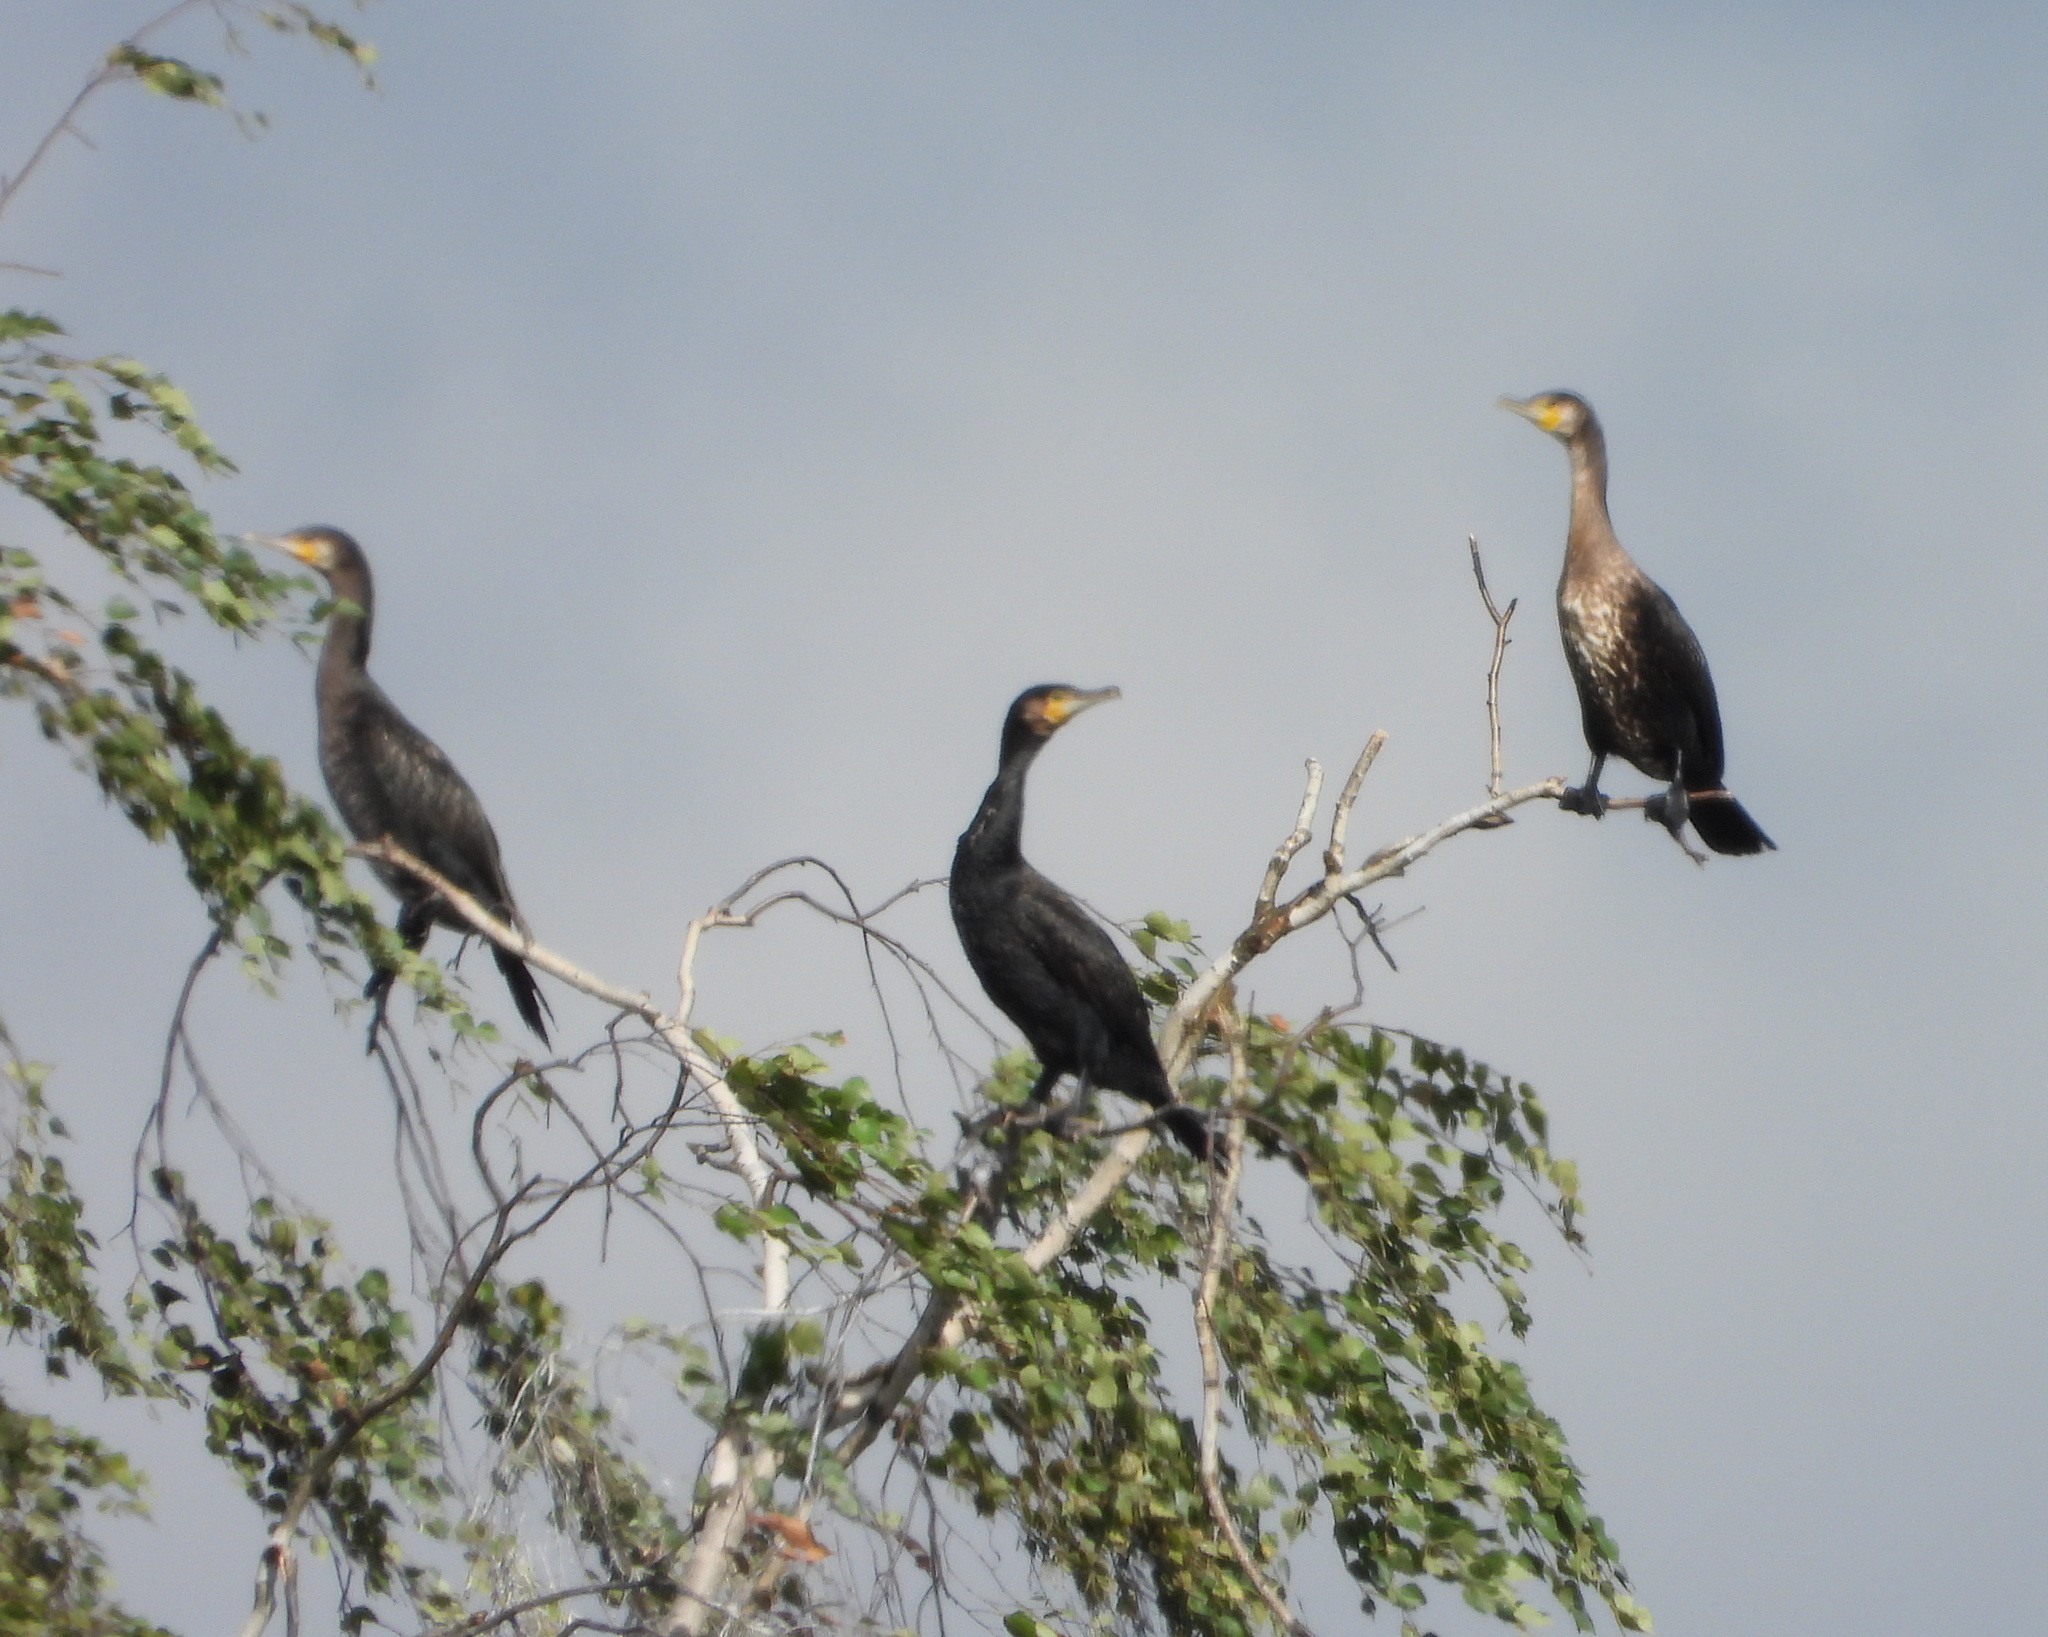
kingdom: Animalia
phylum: Chordata
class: Aves
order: Suliformes
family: Phalacrocoracidae
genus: Phalacrocorax
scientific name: Phalacrocorax carbo
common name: Great cormorant
